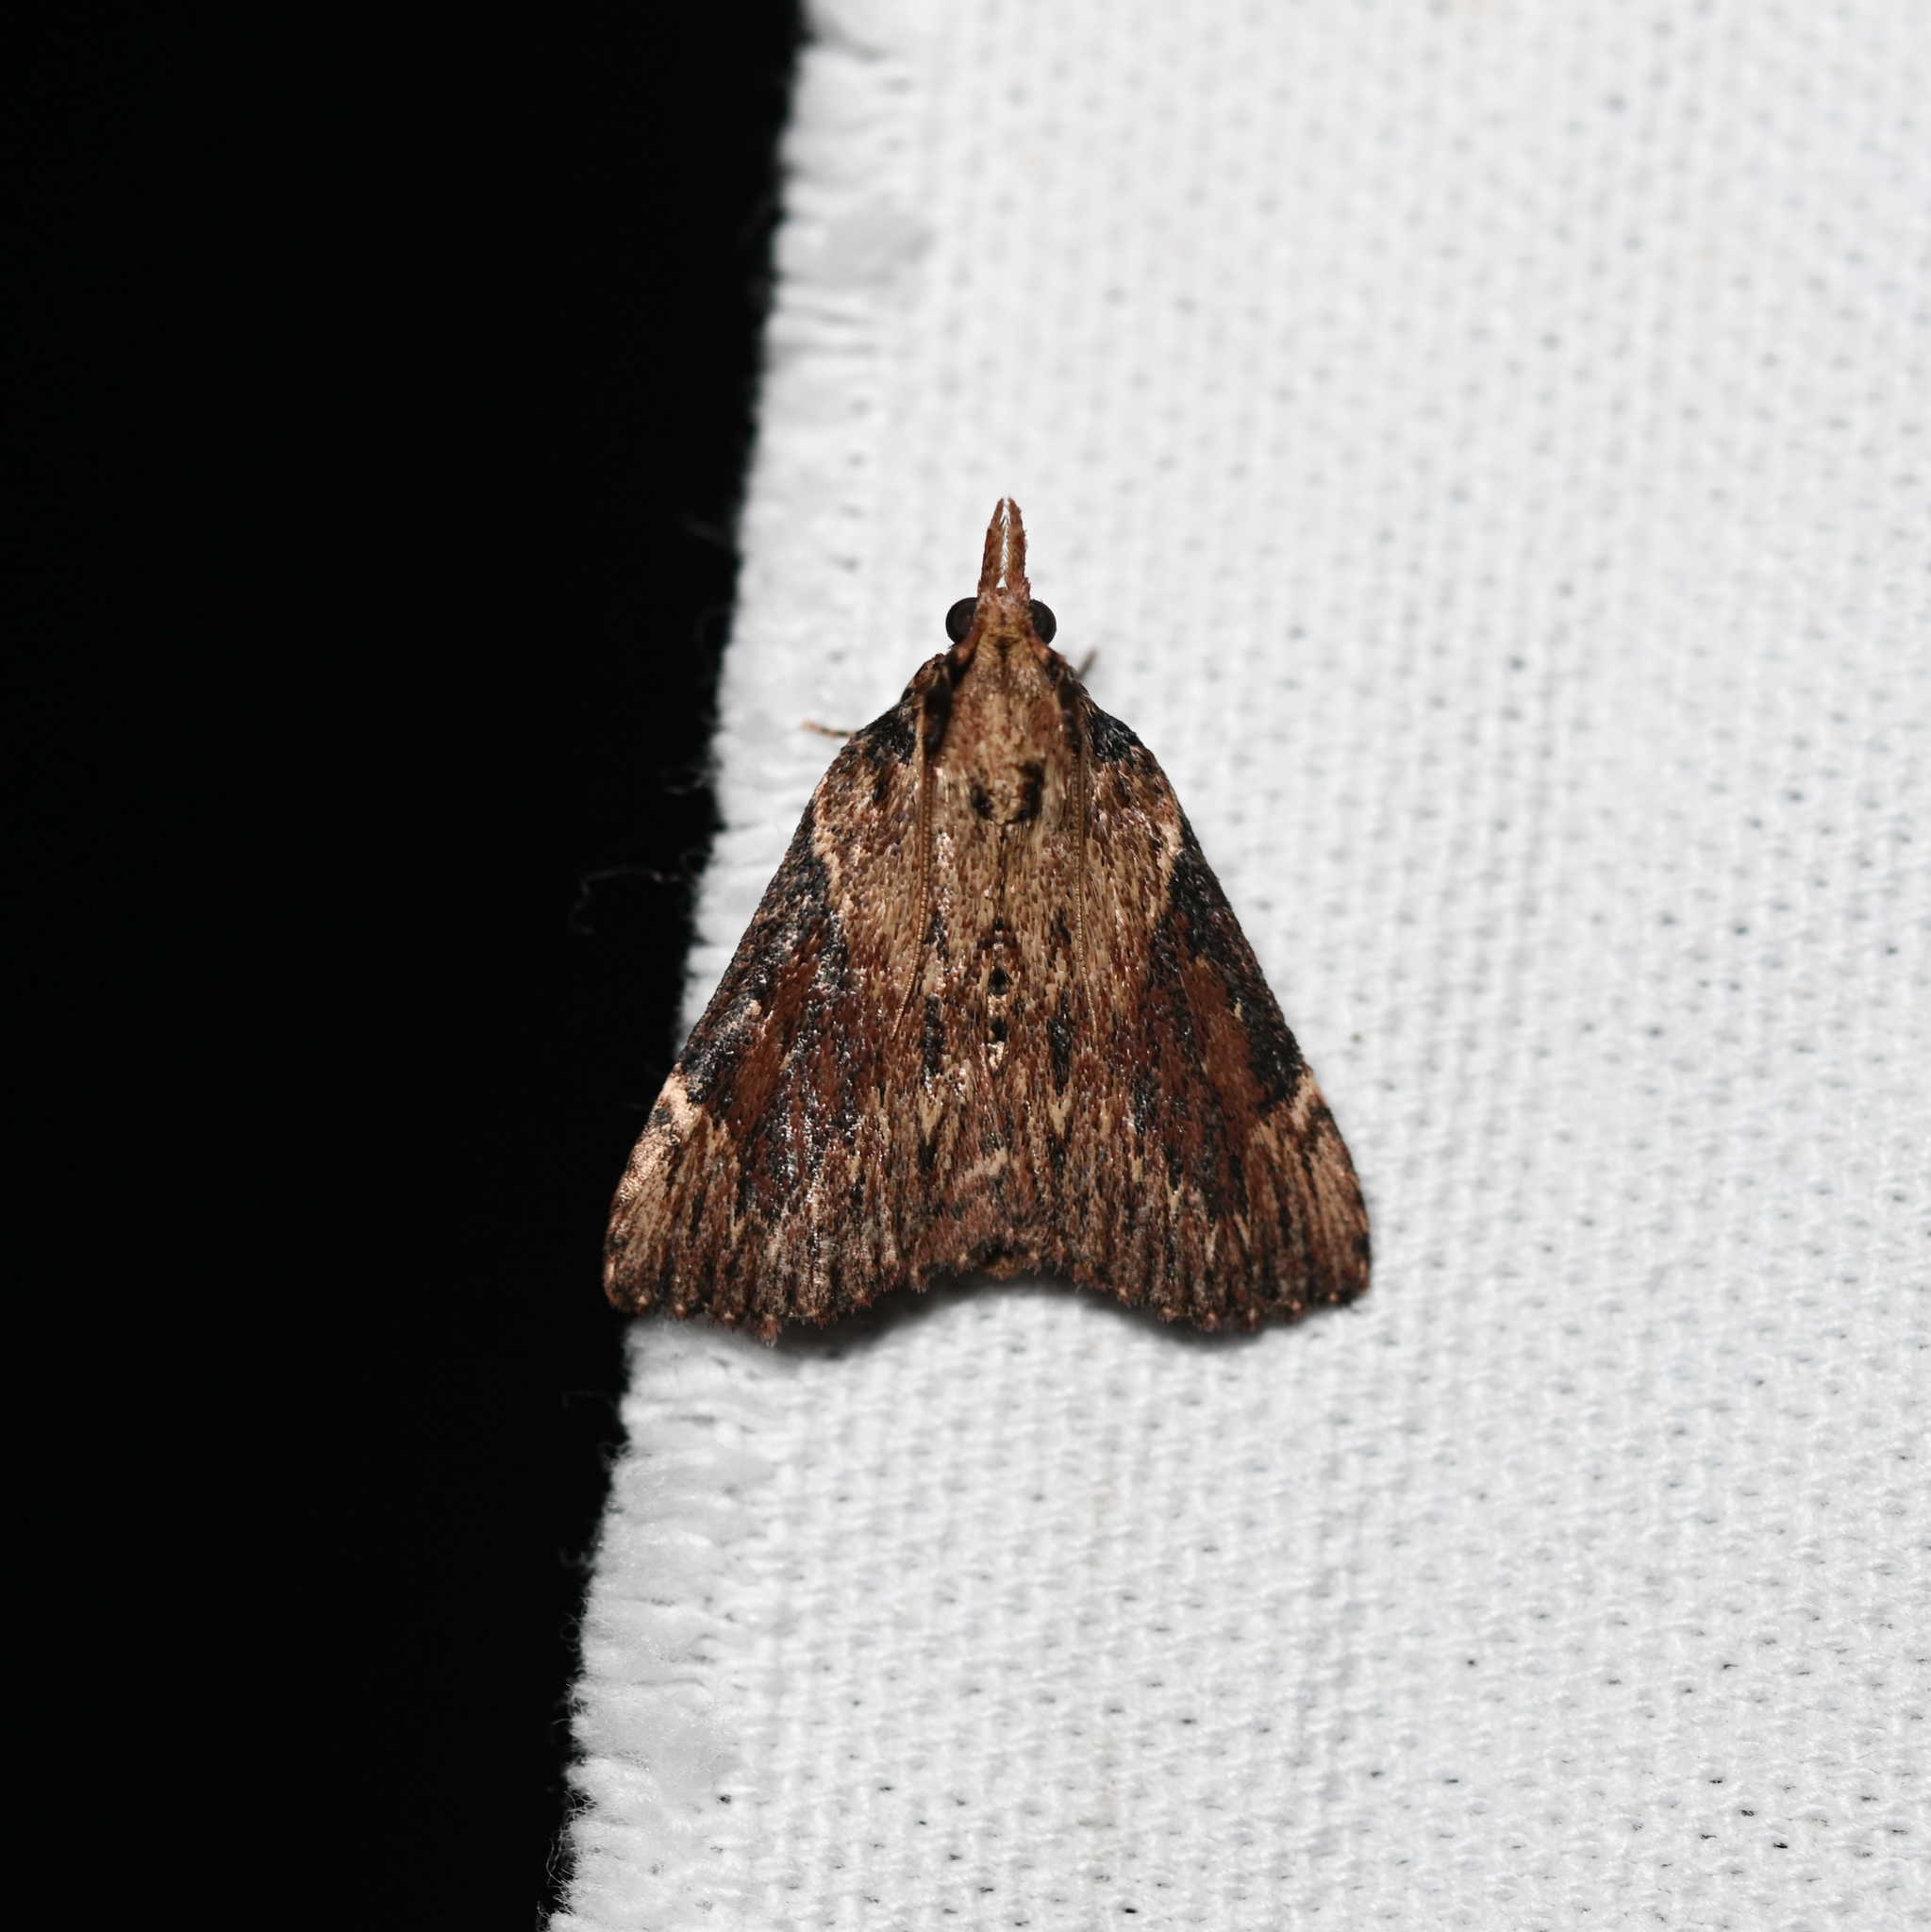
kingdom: Animalia
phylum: Arthropoda
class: Insecta
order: Lepidoptera
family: Pyralidae
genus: Omphalocera
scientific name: Omphalocera cariosa
